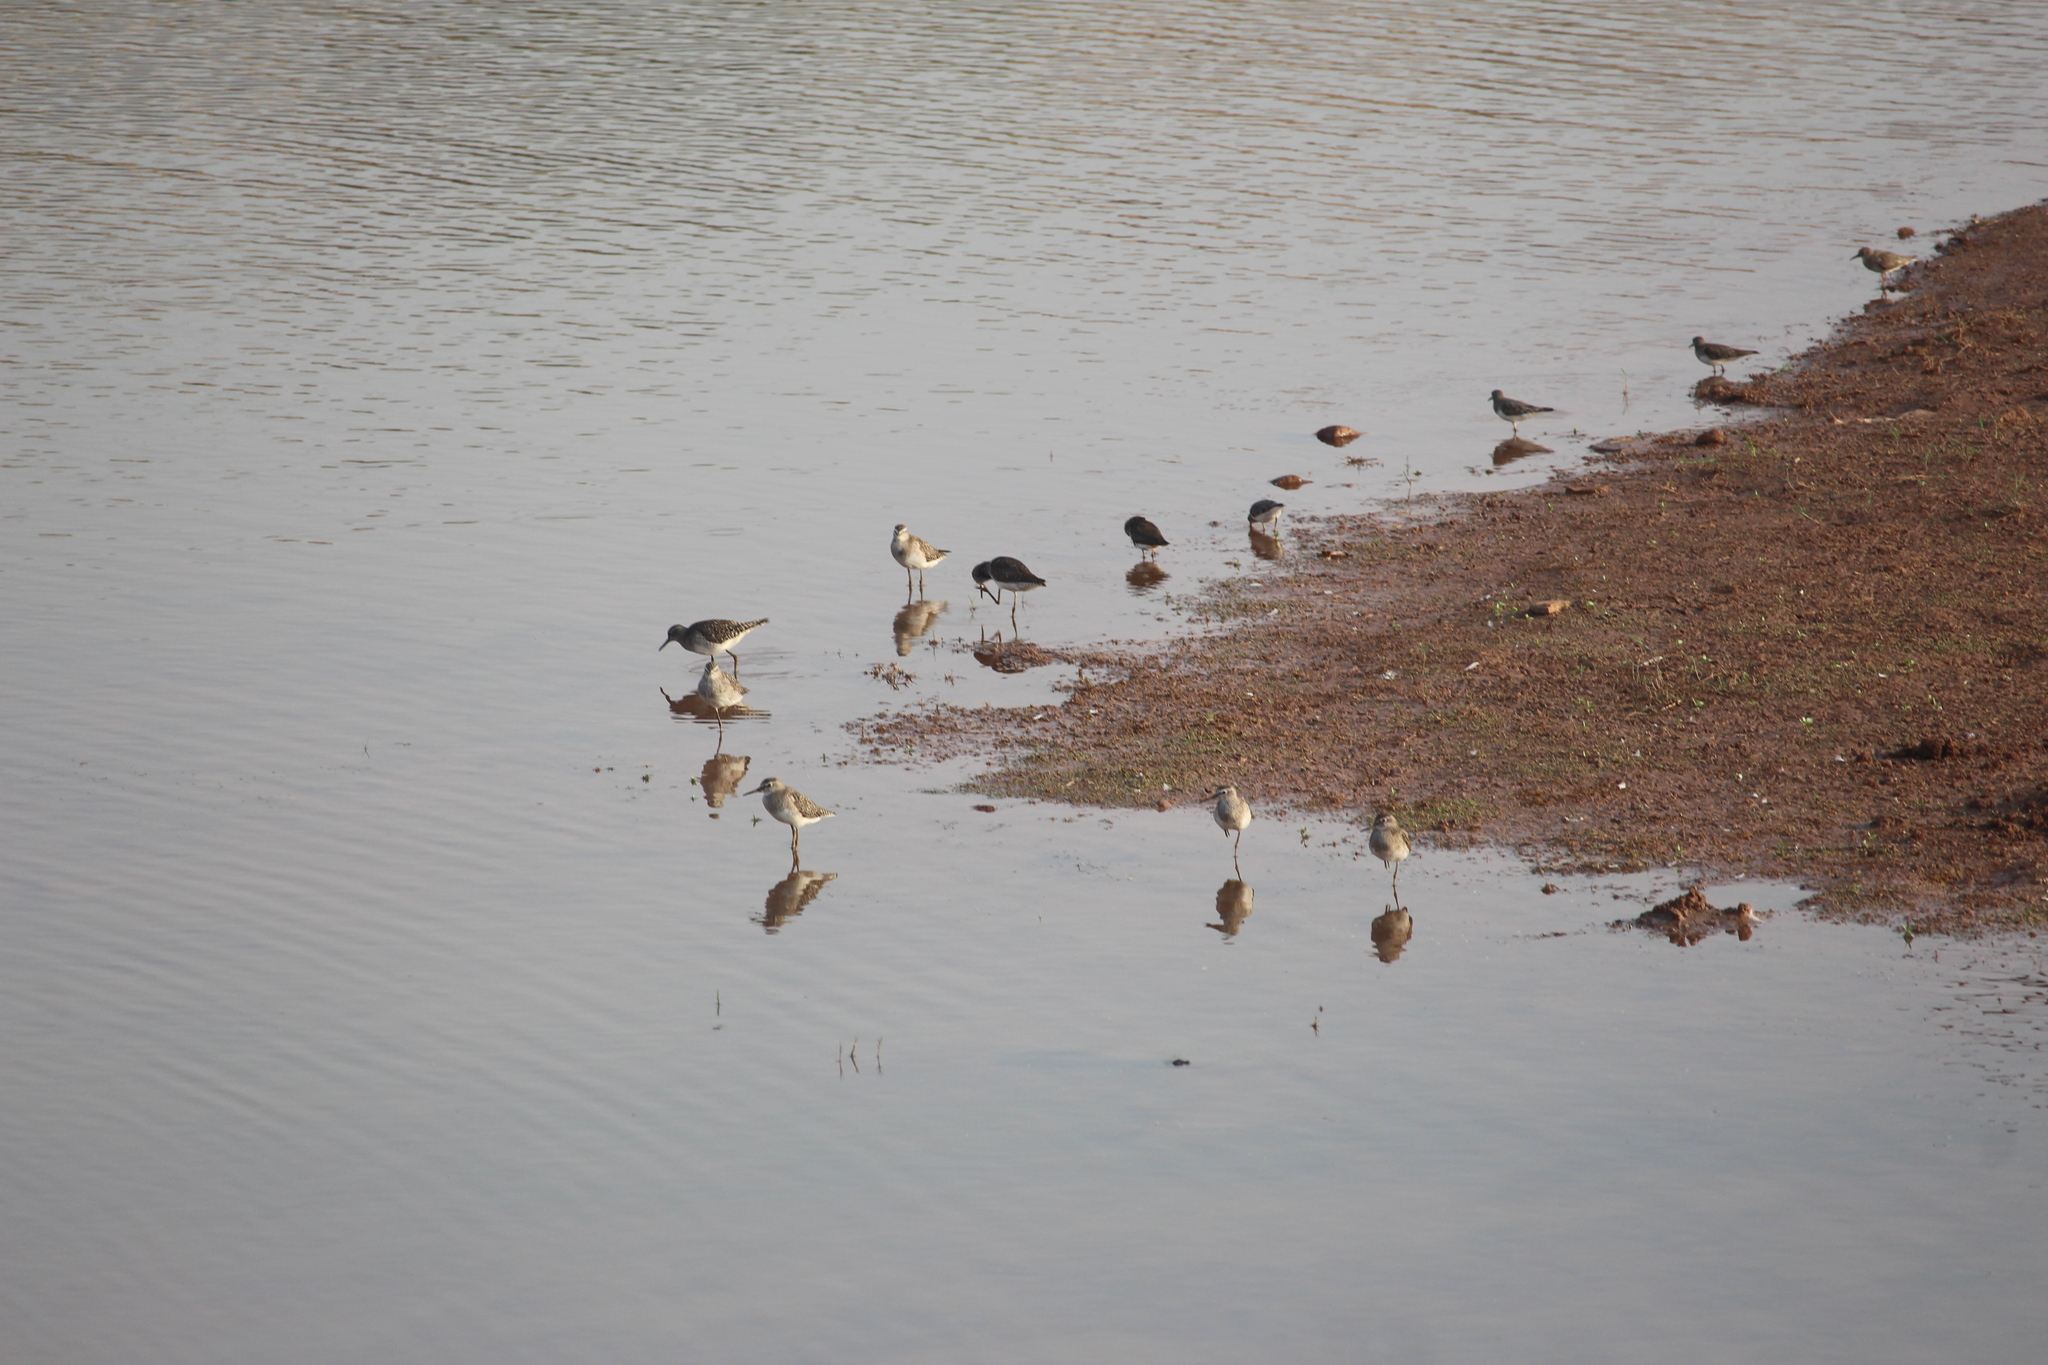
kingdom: Animalia
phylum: Chordata
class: Aves
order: Charadriiformes
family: Scolopacidae
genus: Tringa
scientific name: Tringa glareola
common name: Wood sandpiper
